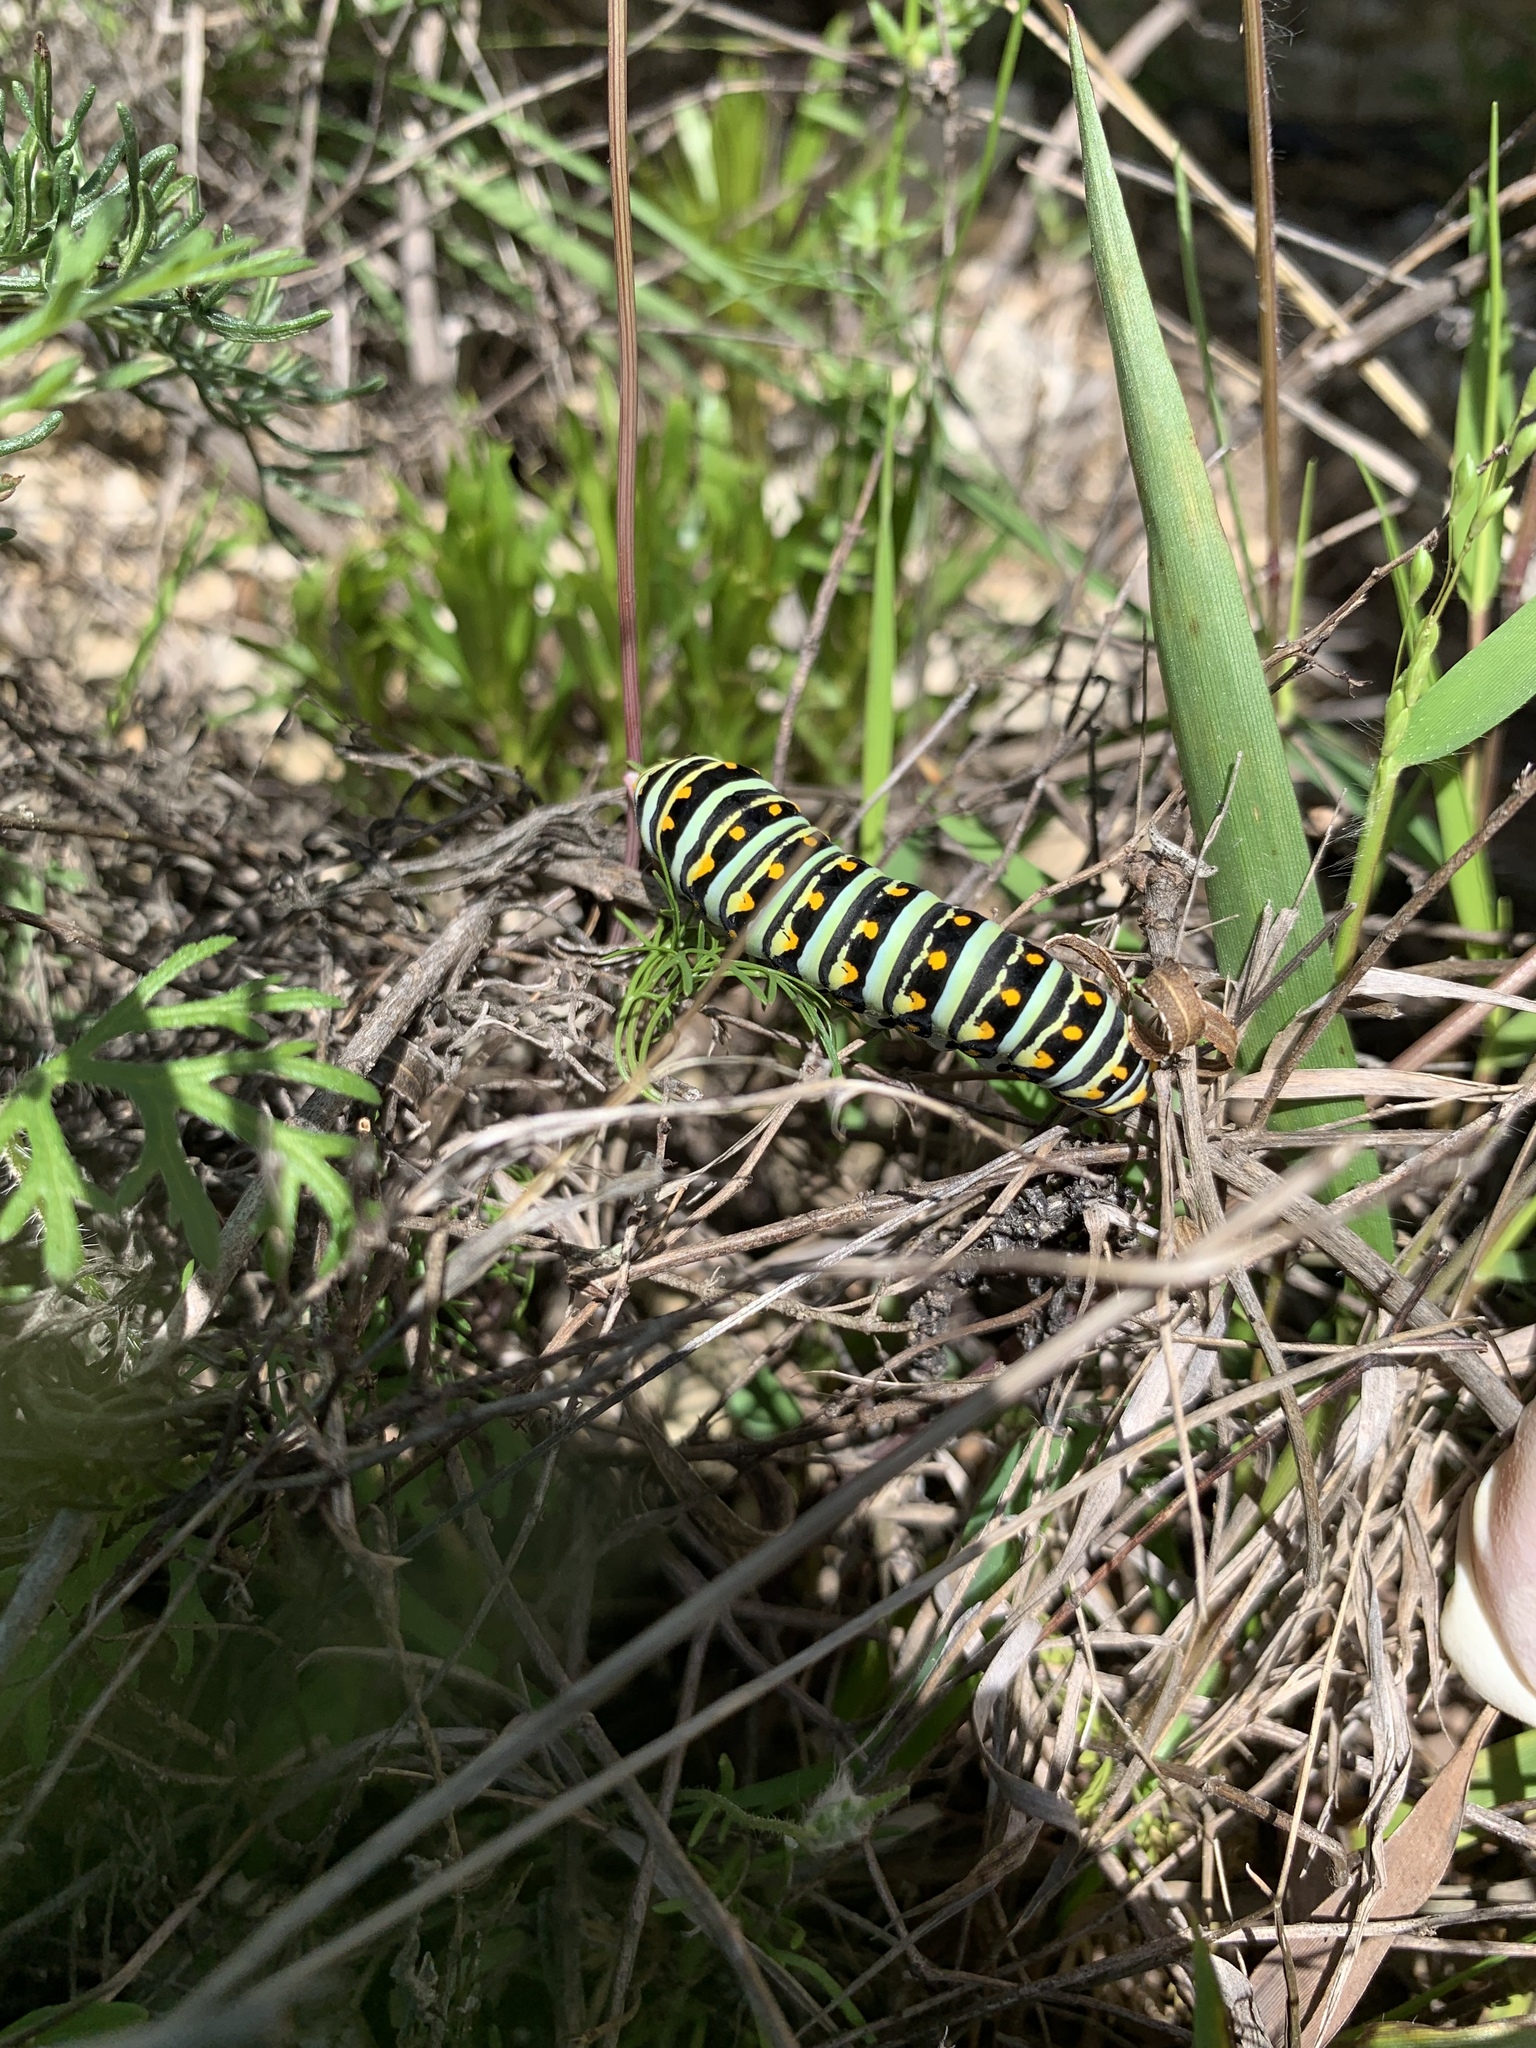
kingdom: Animalia
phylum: Arthropoda
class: Insecta
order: Lepidoptera
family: Papilionidae
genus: Papilio
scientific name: Papilio polyxenes
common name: Black swallowtail
